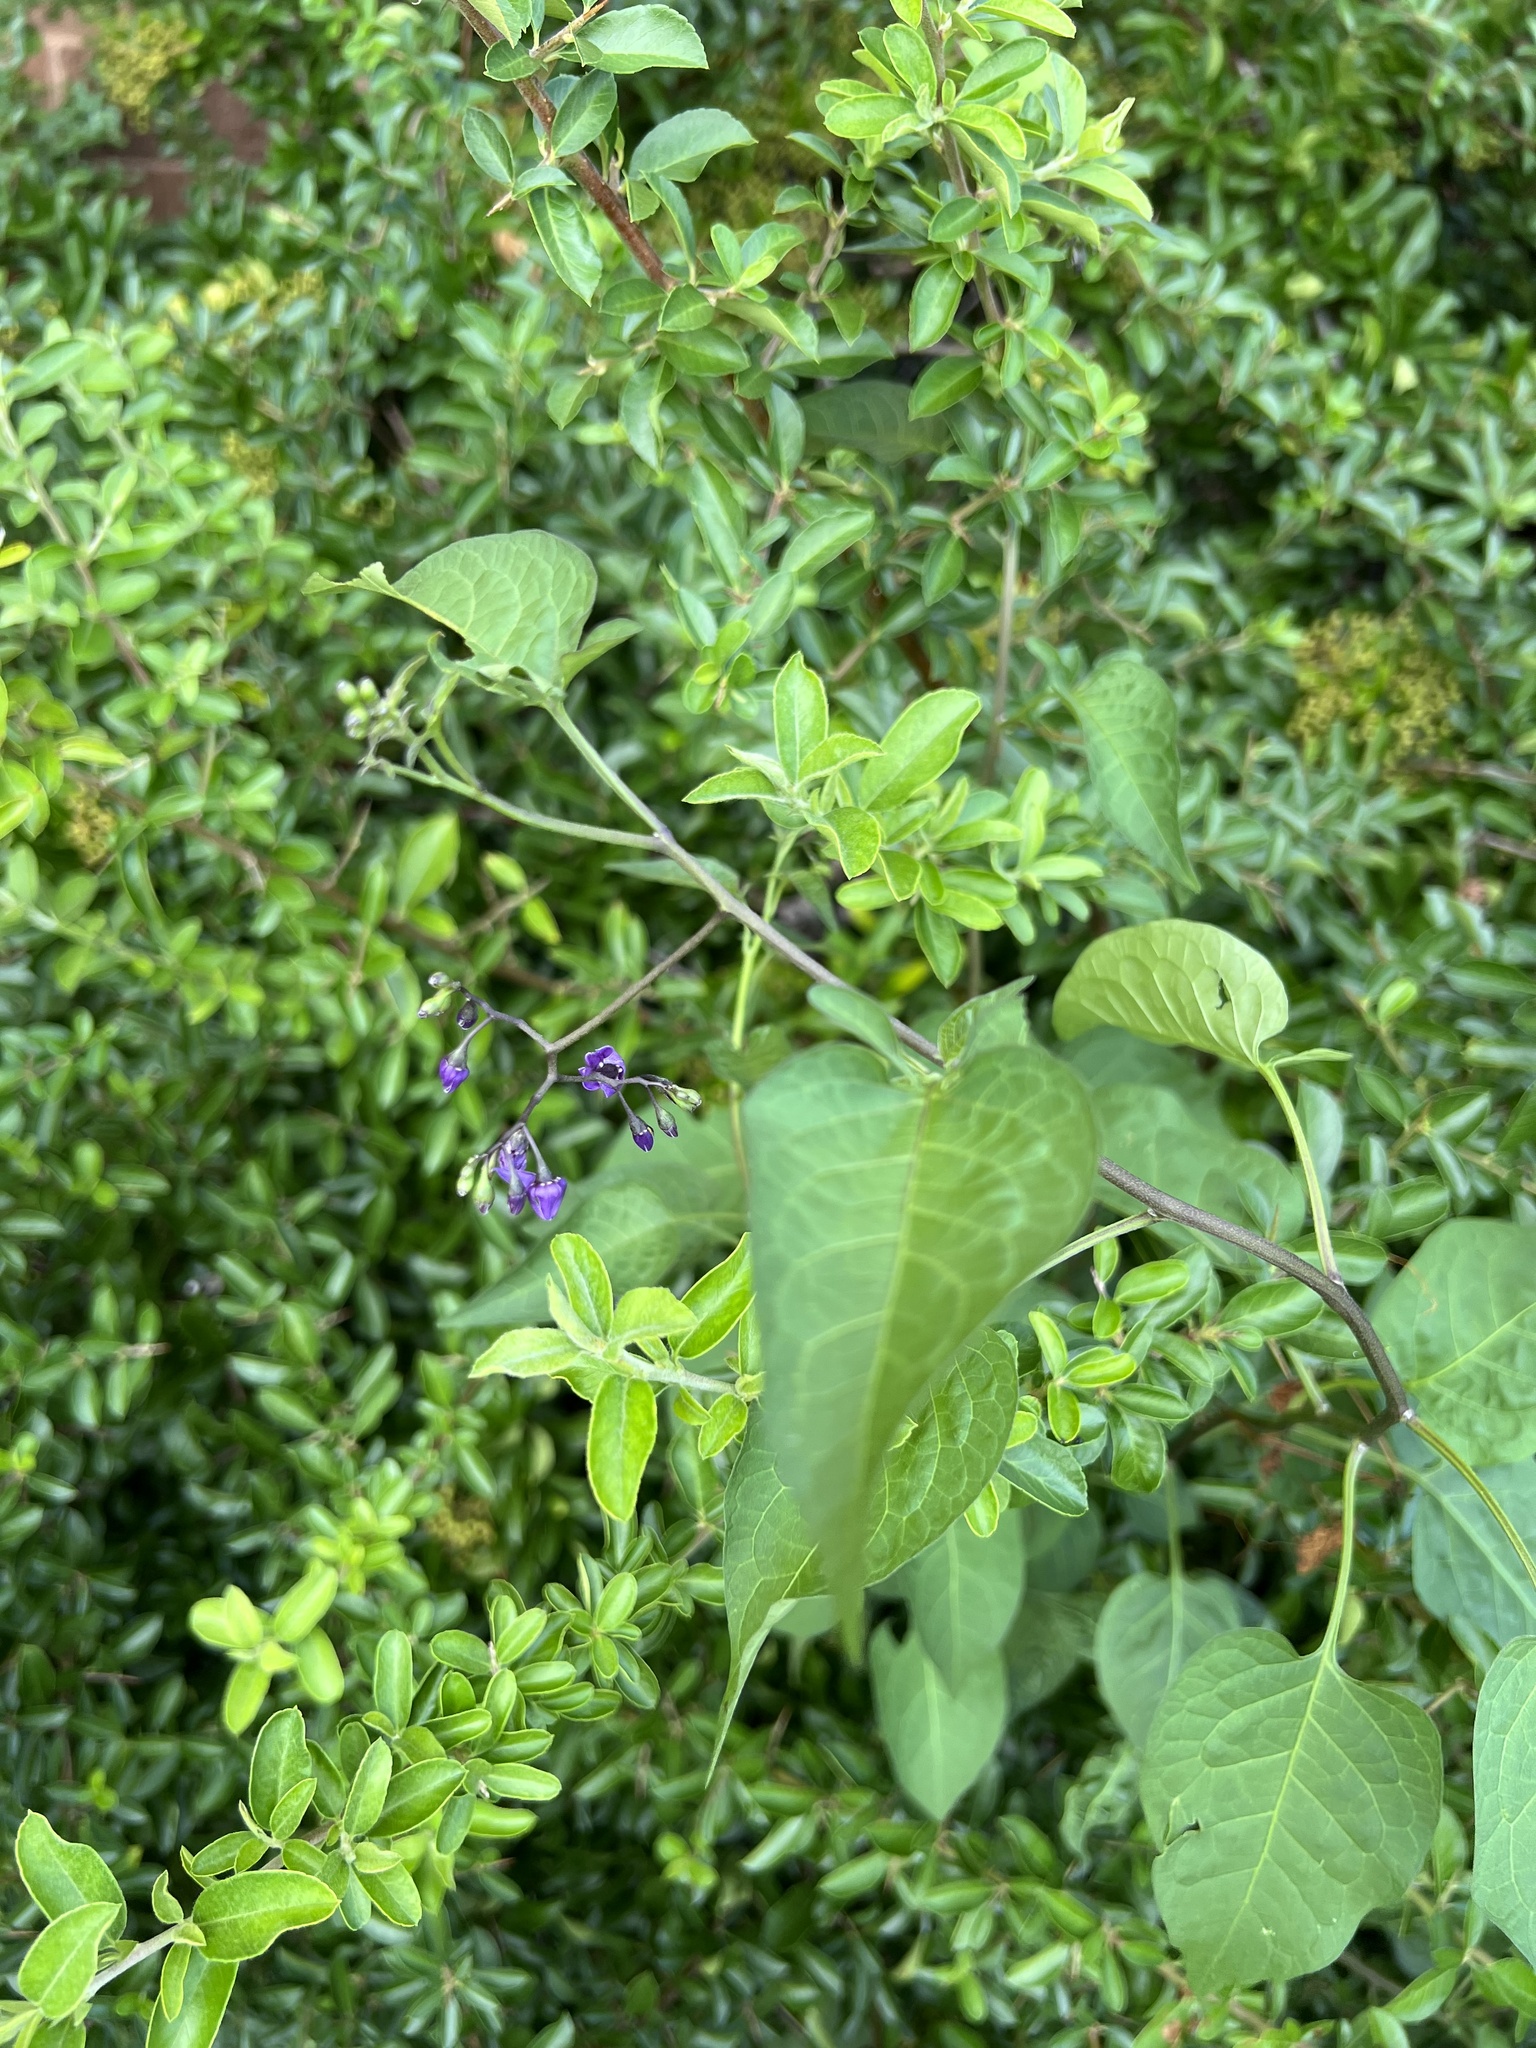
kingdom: Plantae
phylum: Tracheophyta
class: Magnoliopsida
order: Solanales
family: Solanaceae
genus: Solanum
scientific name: Solanum dulcamara
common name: Climbing nightshade
